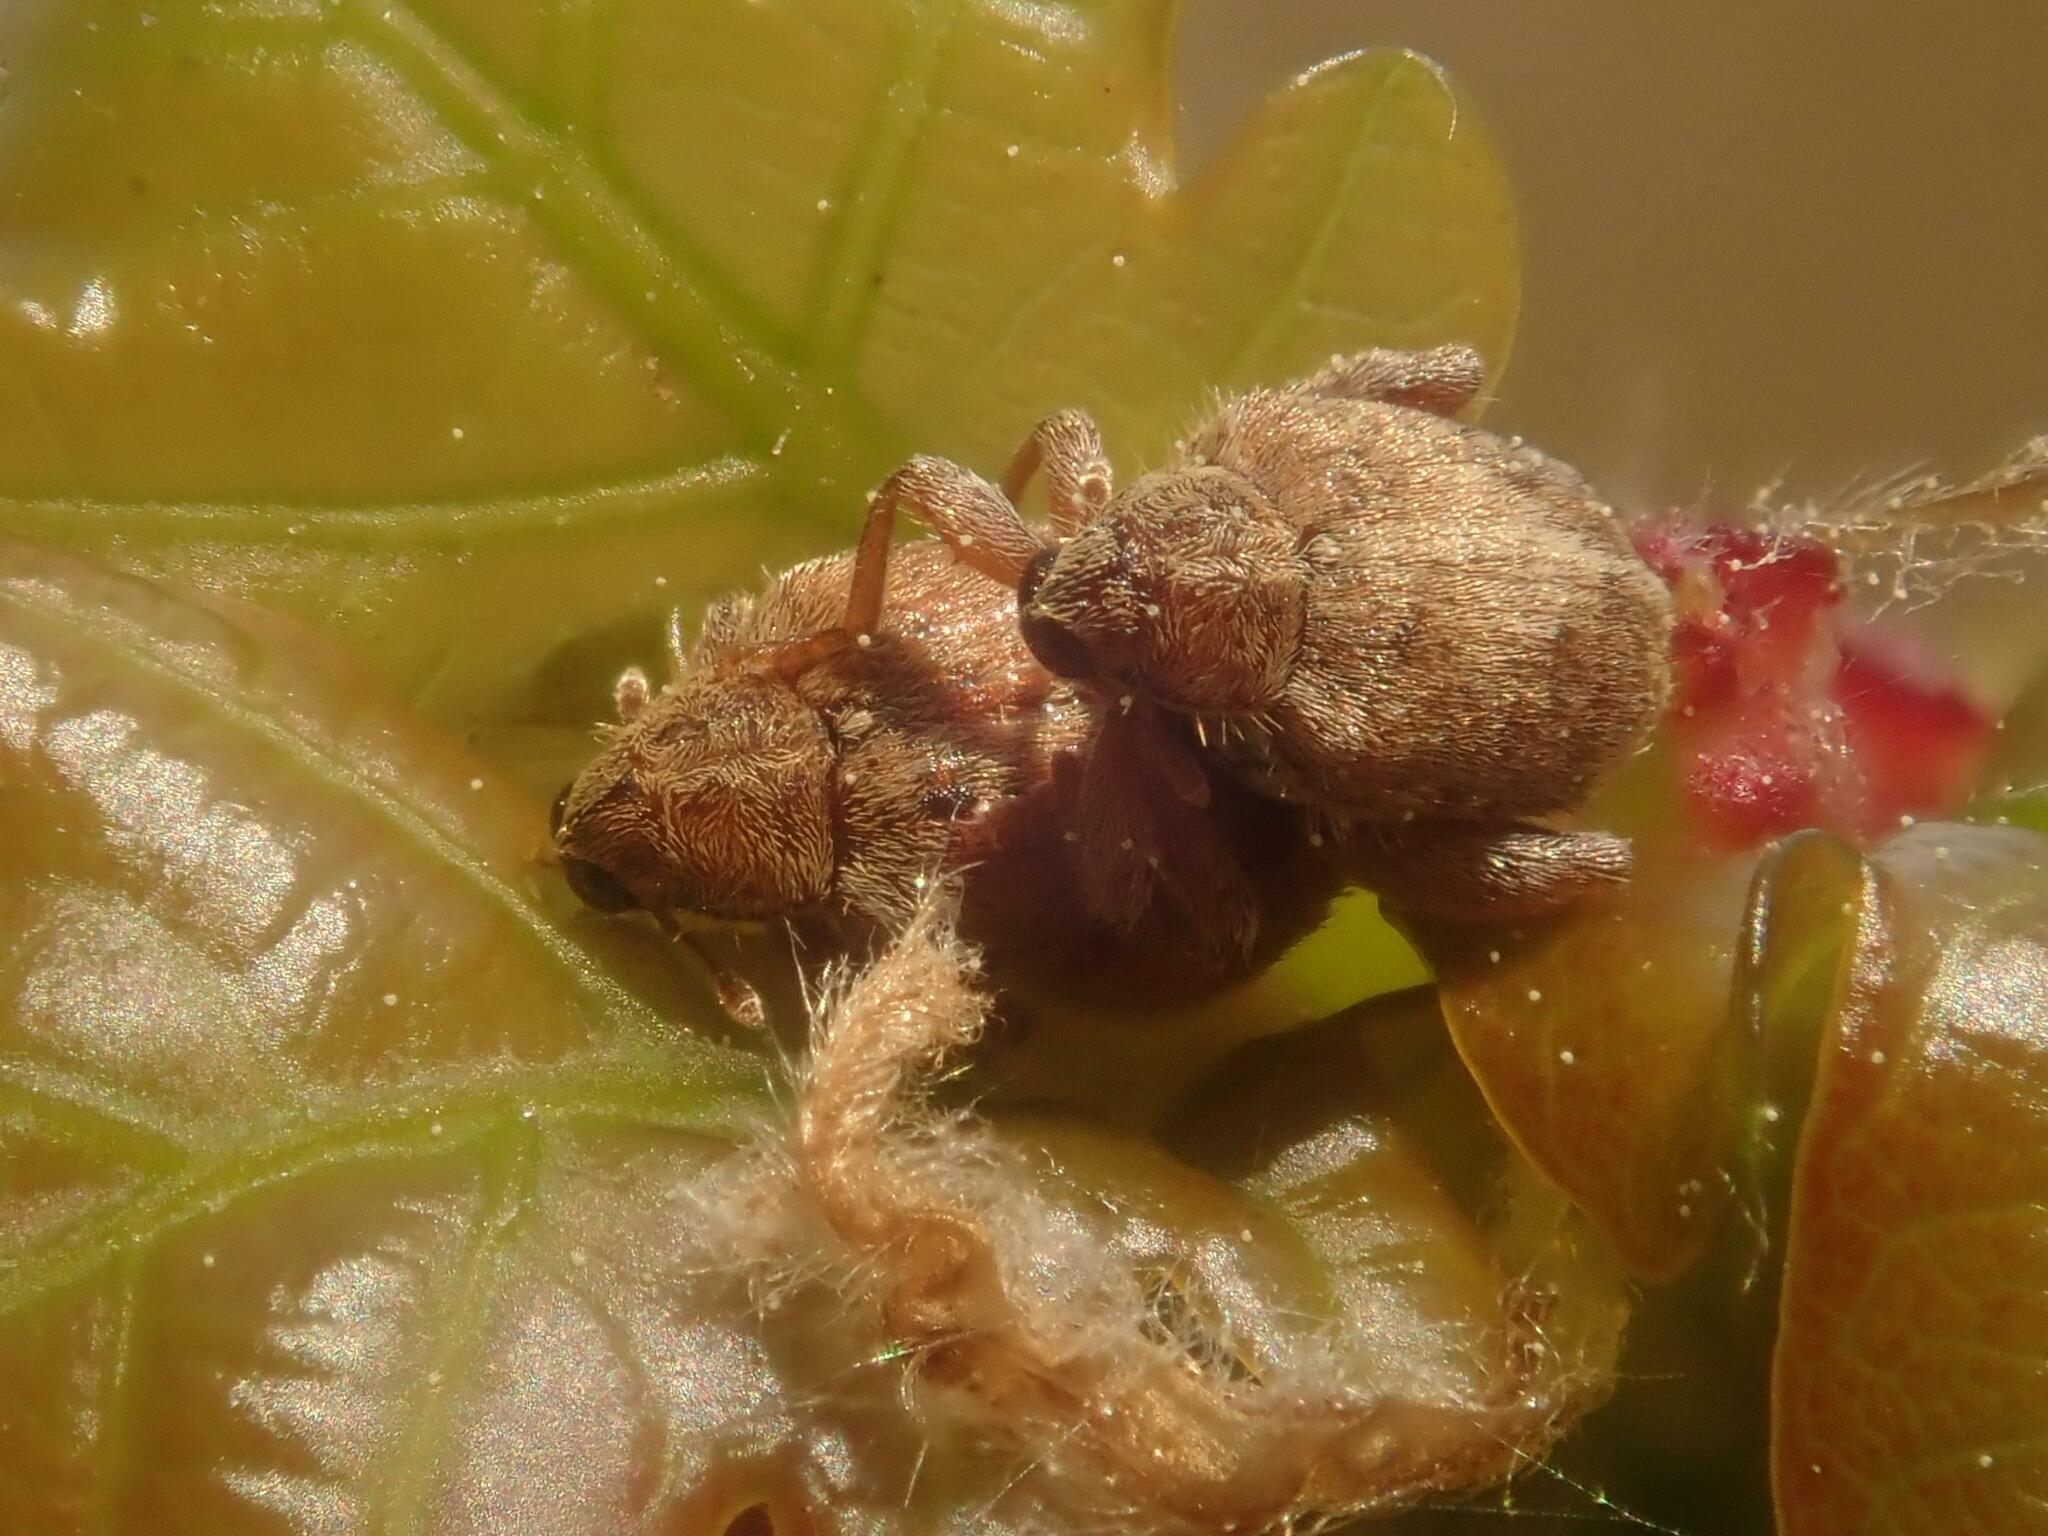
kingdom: Animalia
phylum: Arthropoda
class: Insecta
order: Coleoptera
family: Curculionidae
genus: Orchestes
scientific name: Orchestes quercus
